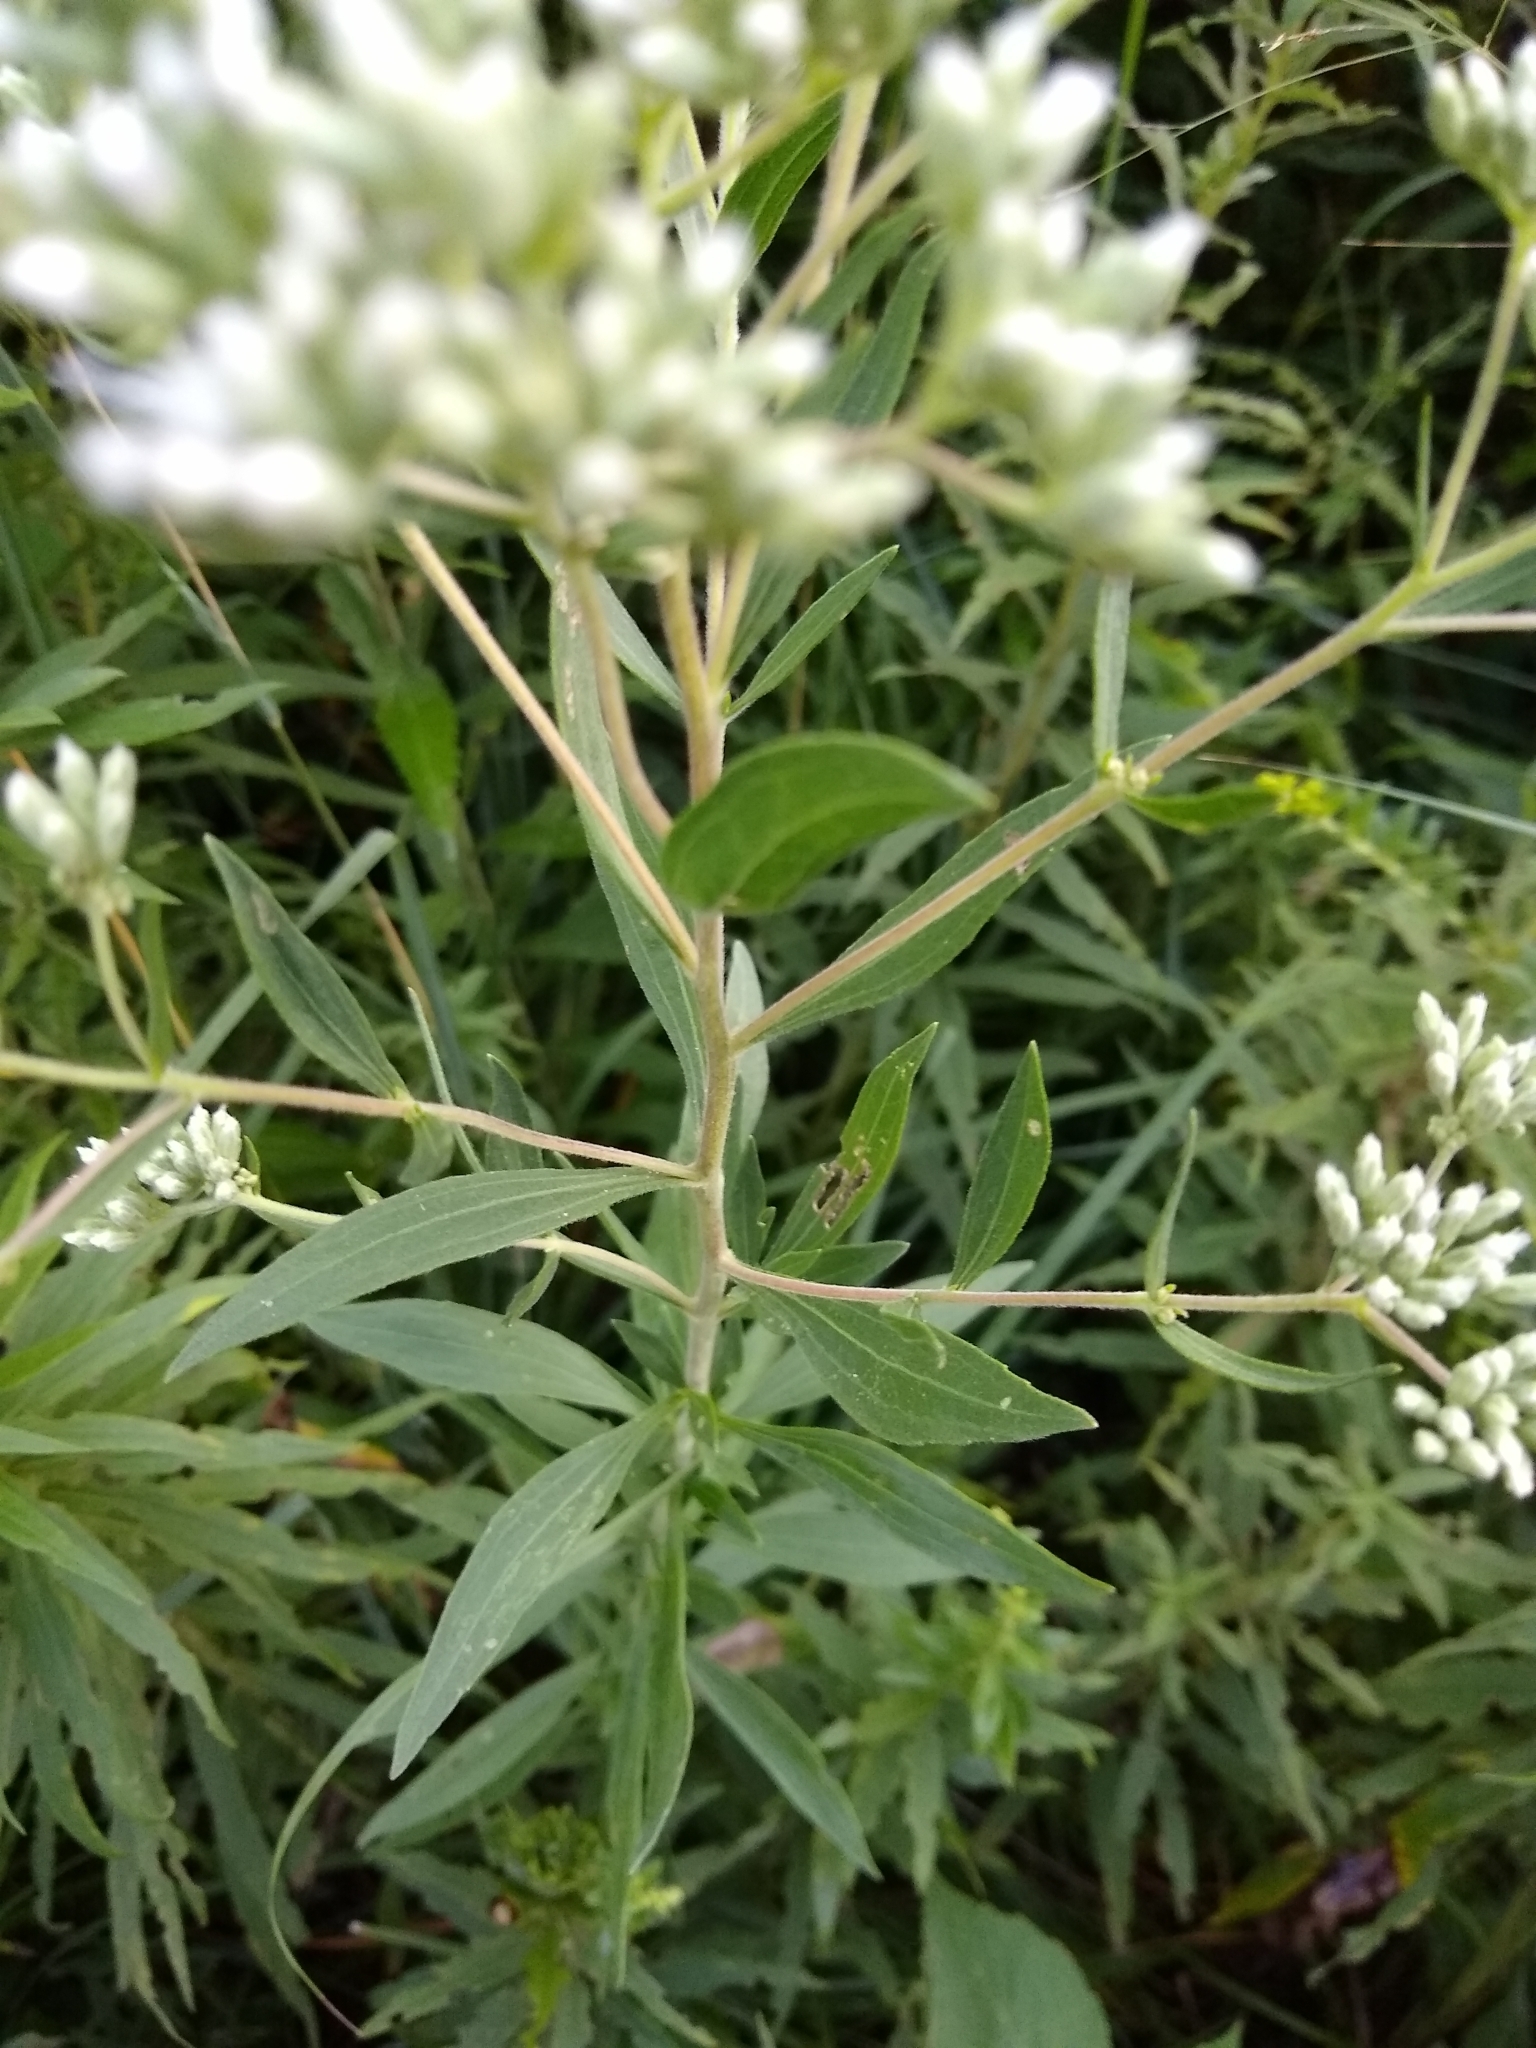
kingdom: Plantae
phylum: Tracheophyta
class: Magnoliopsida
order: Asterales
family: Asteraceae
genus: Eupatorium
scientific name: Eupatorium altissimum
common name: Tall thoroughwort
